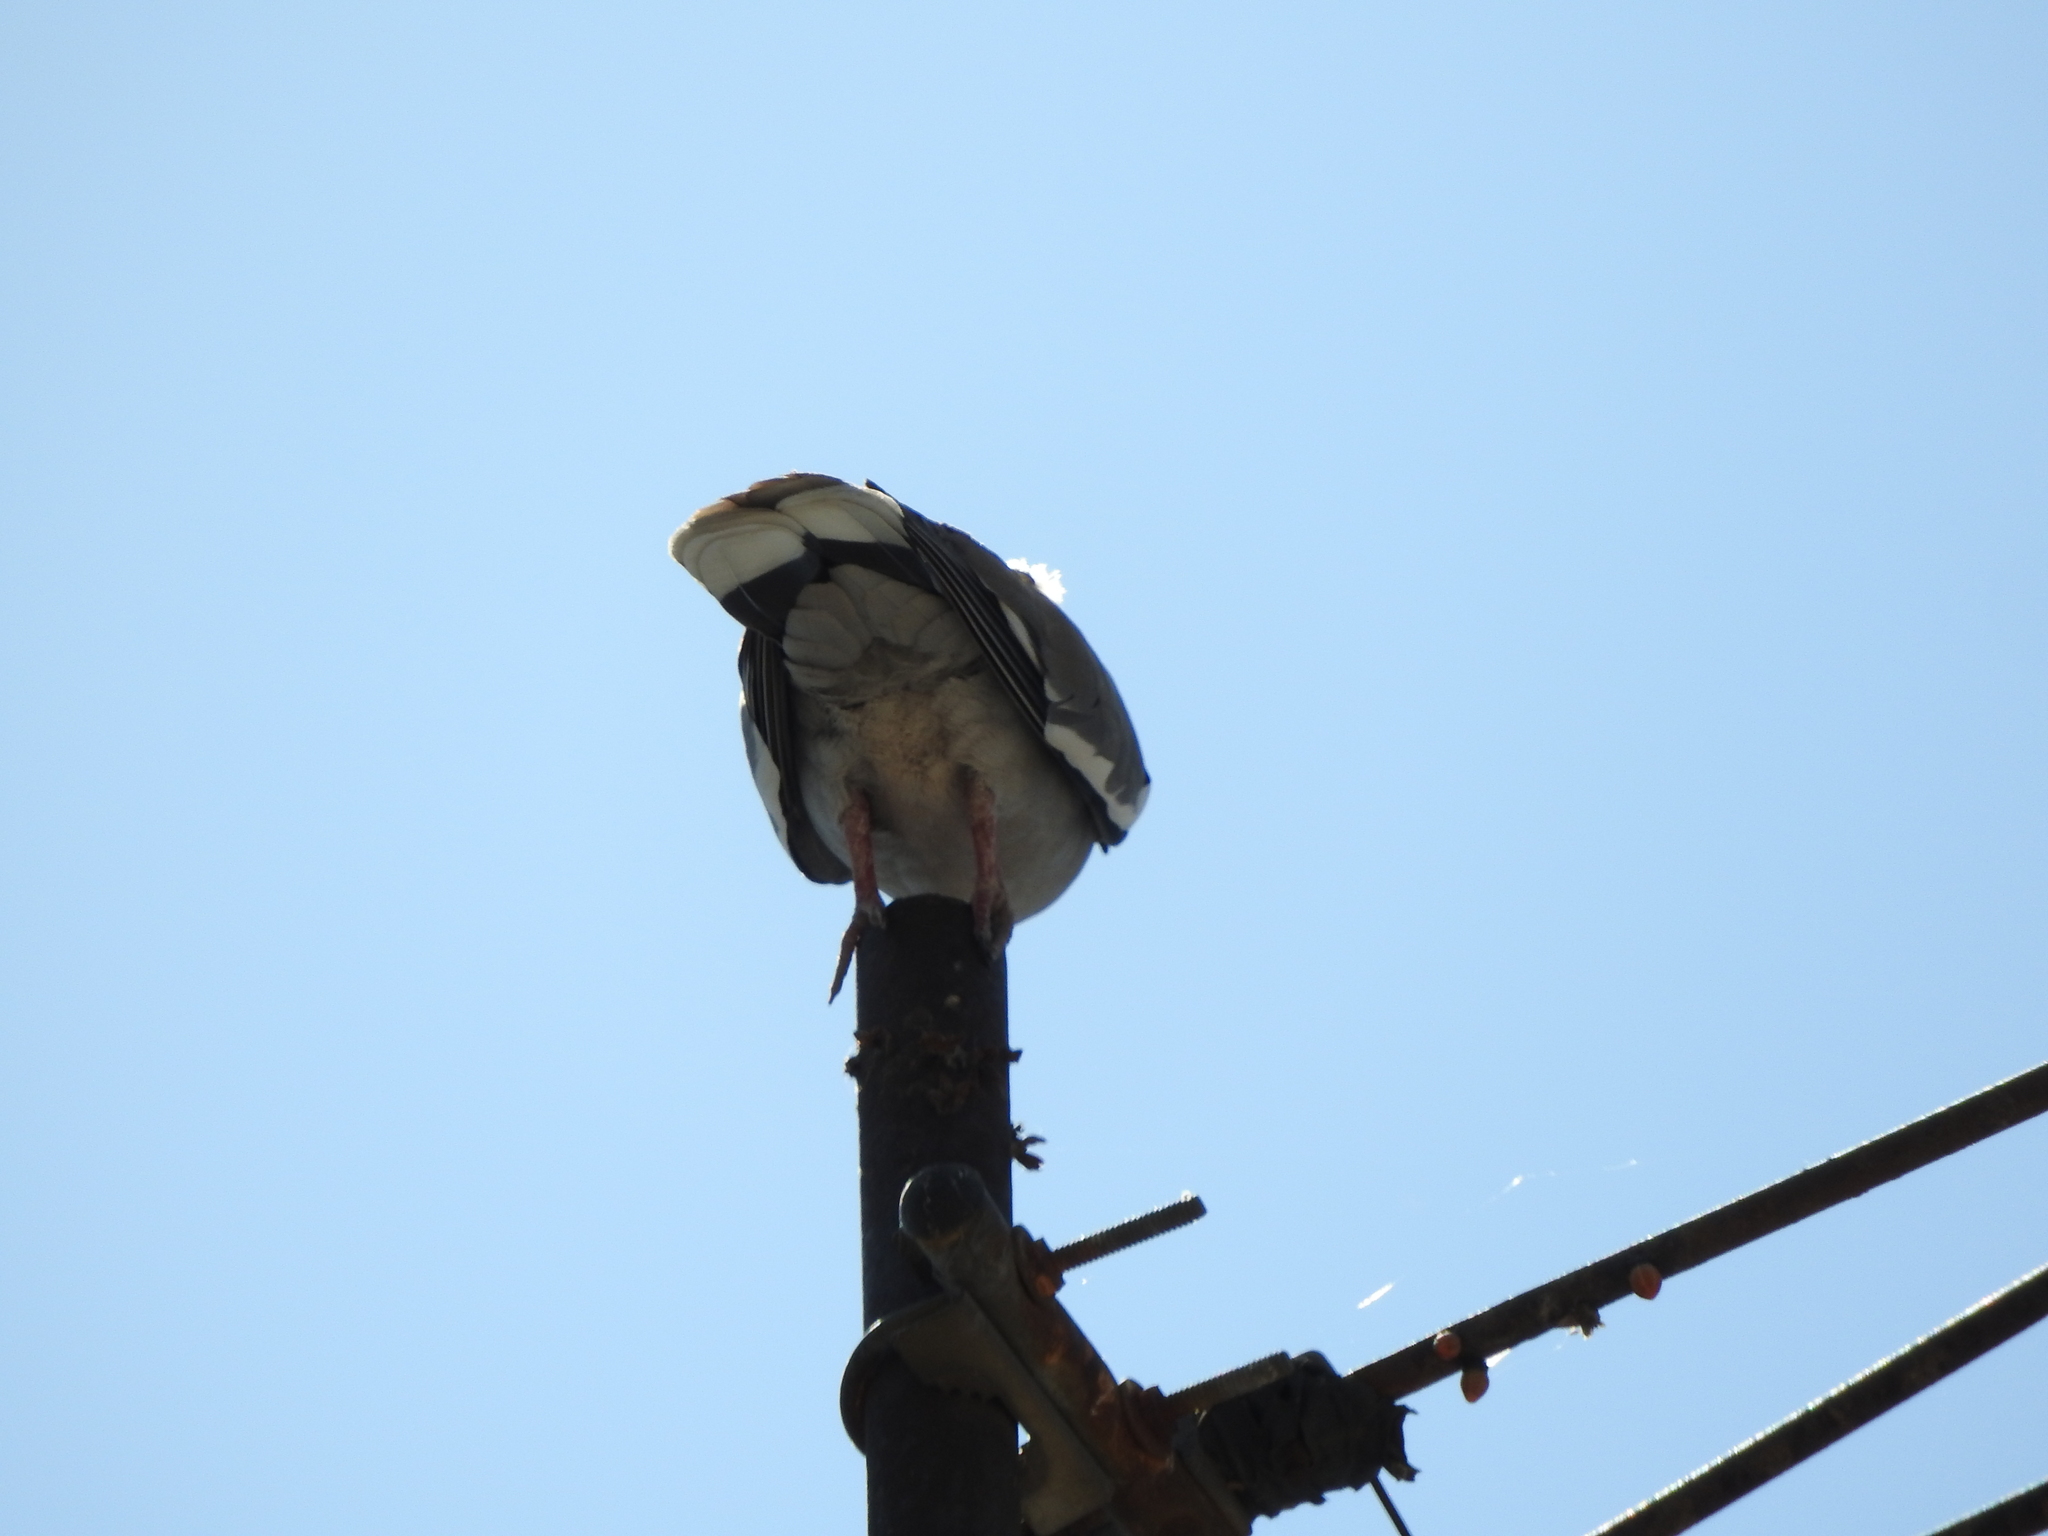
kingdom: Animalia
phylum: Chordata
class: Aves
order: Columbiformes
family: Columbidae
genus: Zenaida
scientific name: Zenaida asiatica
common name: White-winged dove
